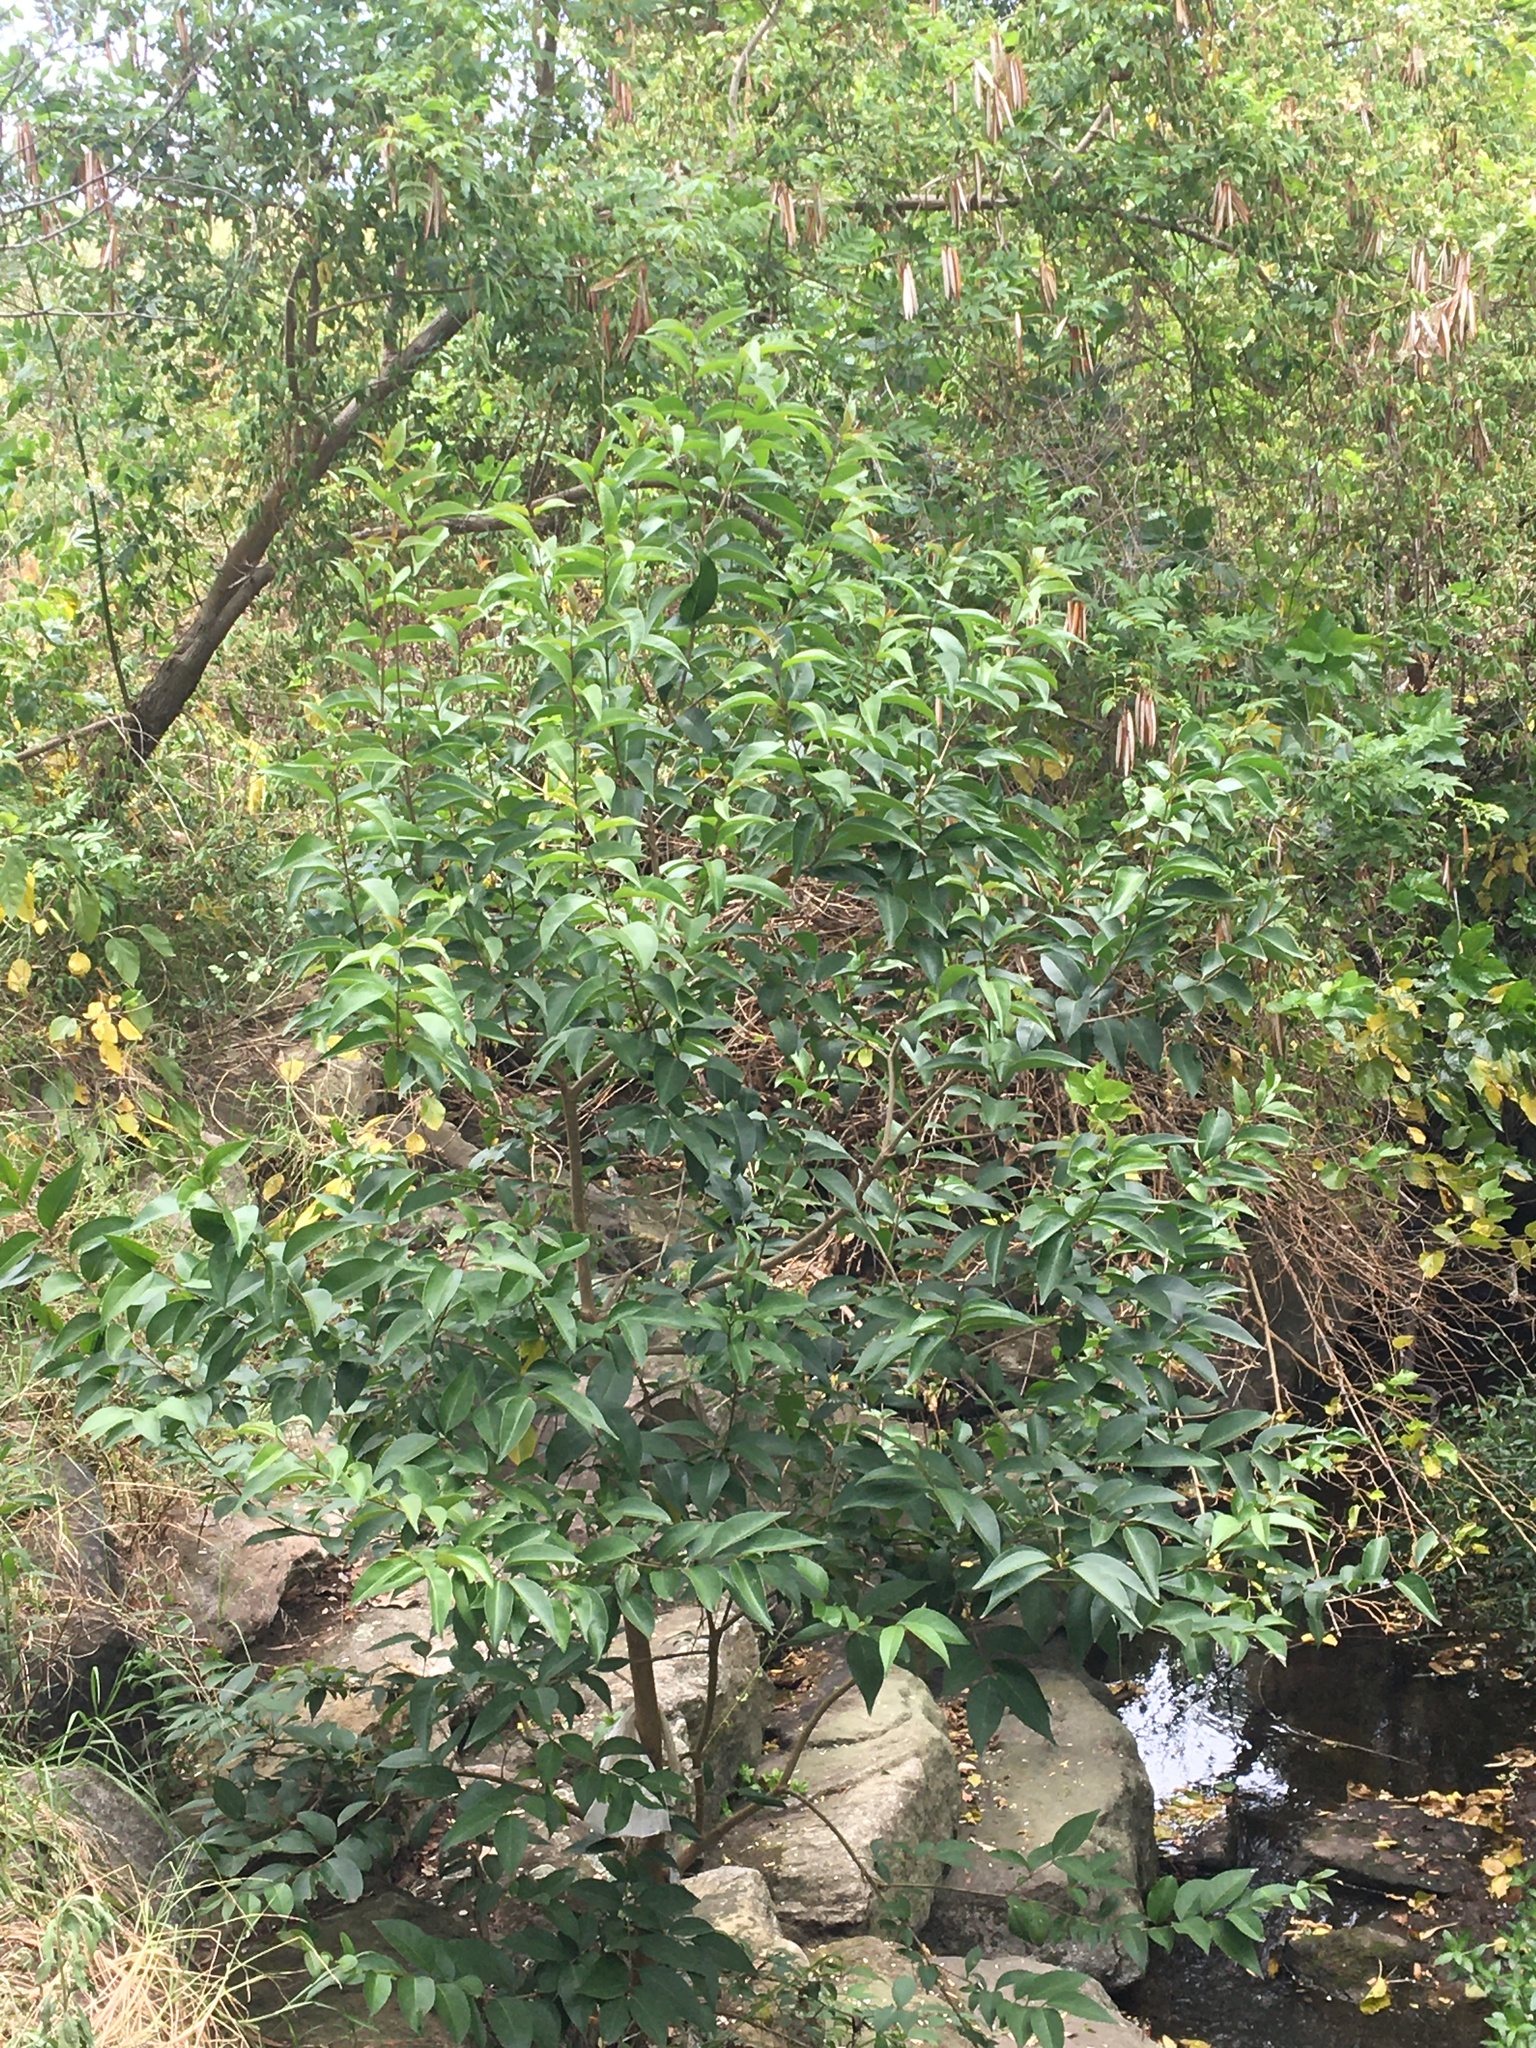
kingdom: Plantae
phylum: Tracheophyta
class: Magnoliopsida
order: Lamiales
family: Oleaceae
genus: Ligustrum
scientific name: Ligustrum lucidum
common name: Glossy privet
